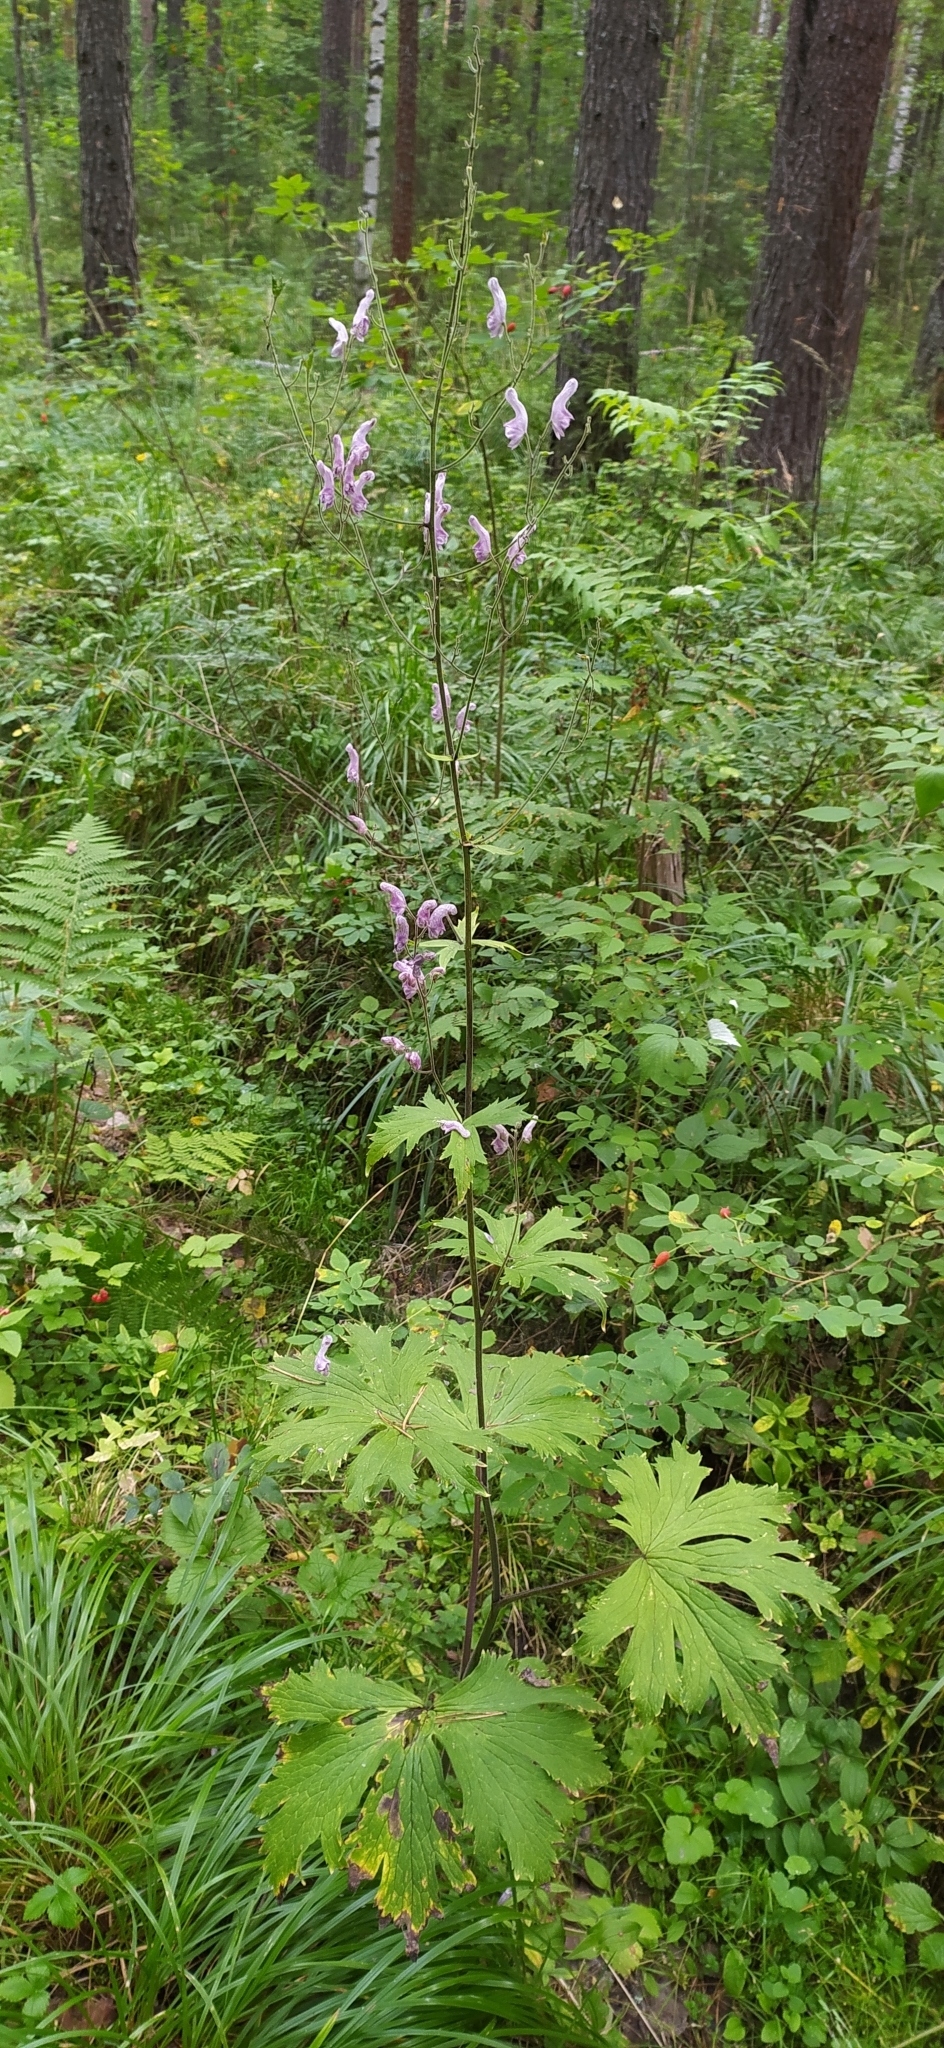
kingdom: Plantae
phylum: Tracheophyta
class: Magnoliopsida
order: Ranunculales
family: Ranunculaceae
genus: Aconitum
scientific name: Aconitum septentrionale
